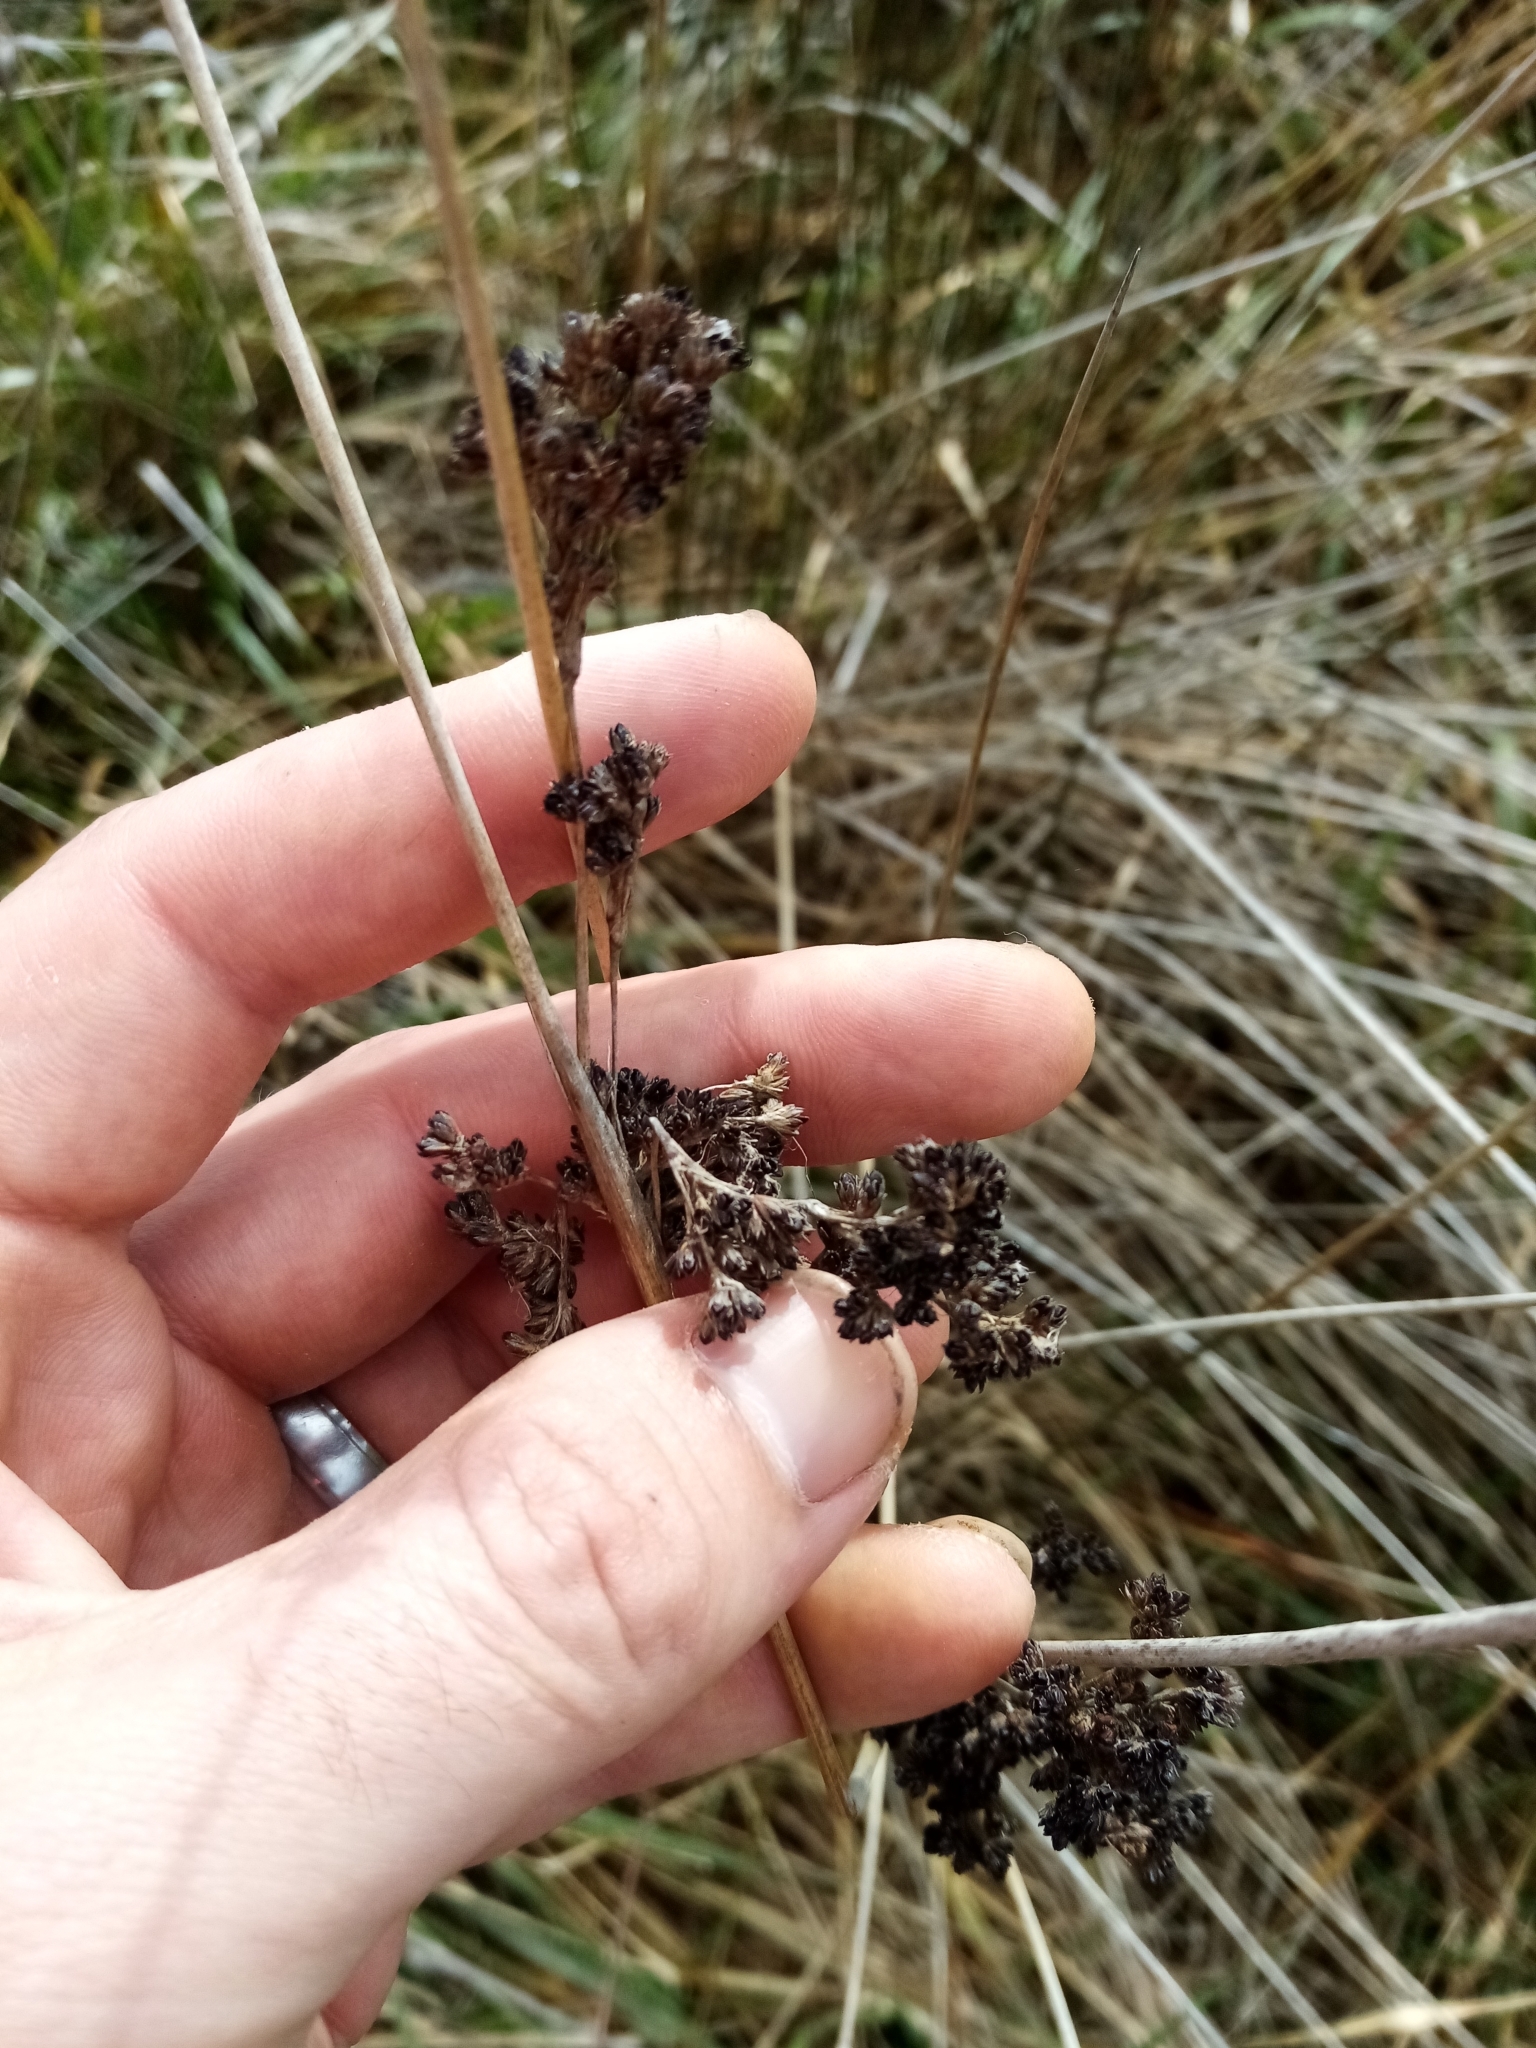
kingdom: Plantae
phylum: Tracheophyta
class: Liliopsida
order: Poales
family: Juncaceae
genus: Juncus
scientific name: Juncus kraussii
